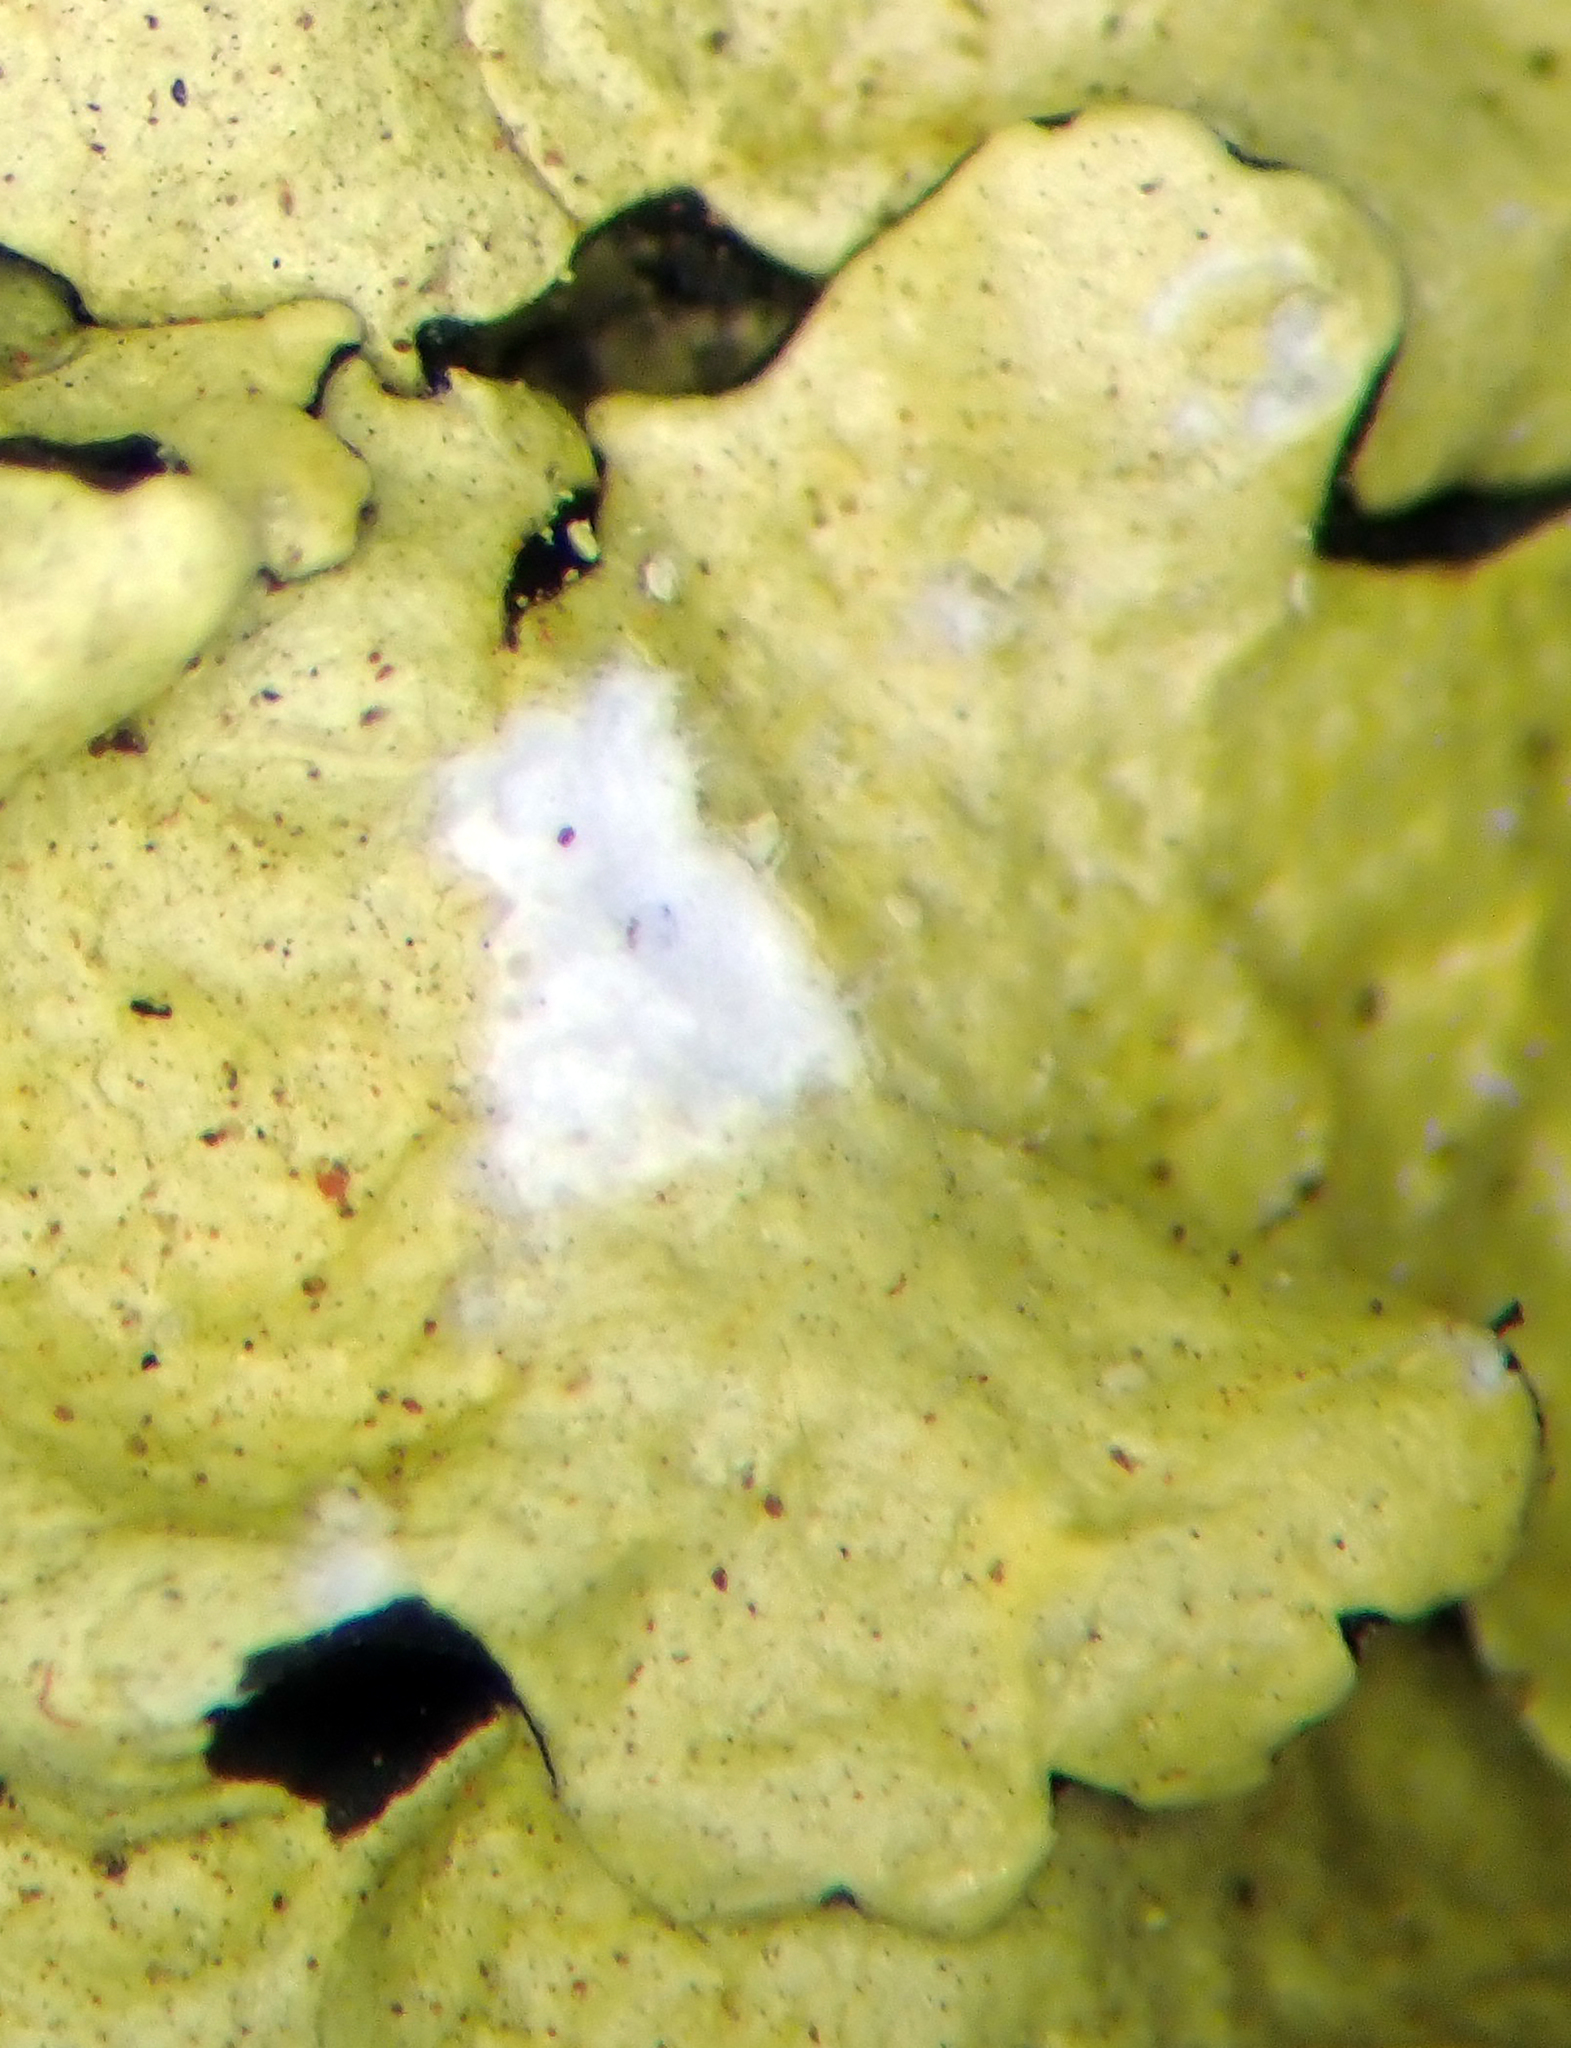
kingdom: Fungi
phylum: Ascomycota
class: Lecanoromycetes
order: Lecanorales
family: Parmeliaceae
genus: Flavoparmelia
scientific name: Flavoparmelia haysomii
